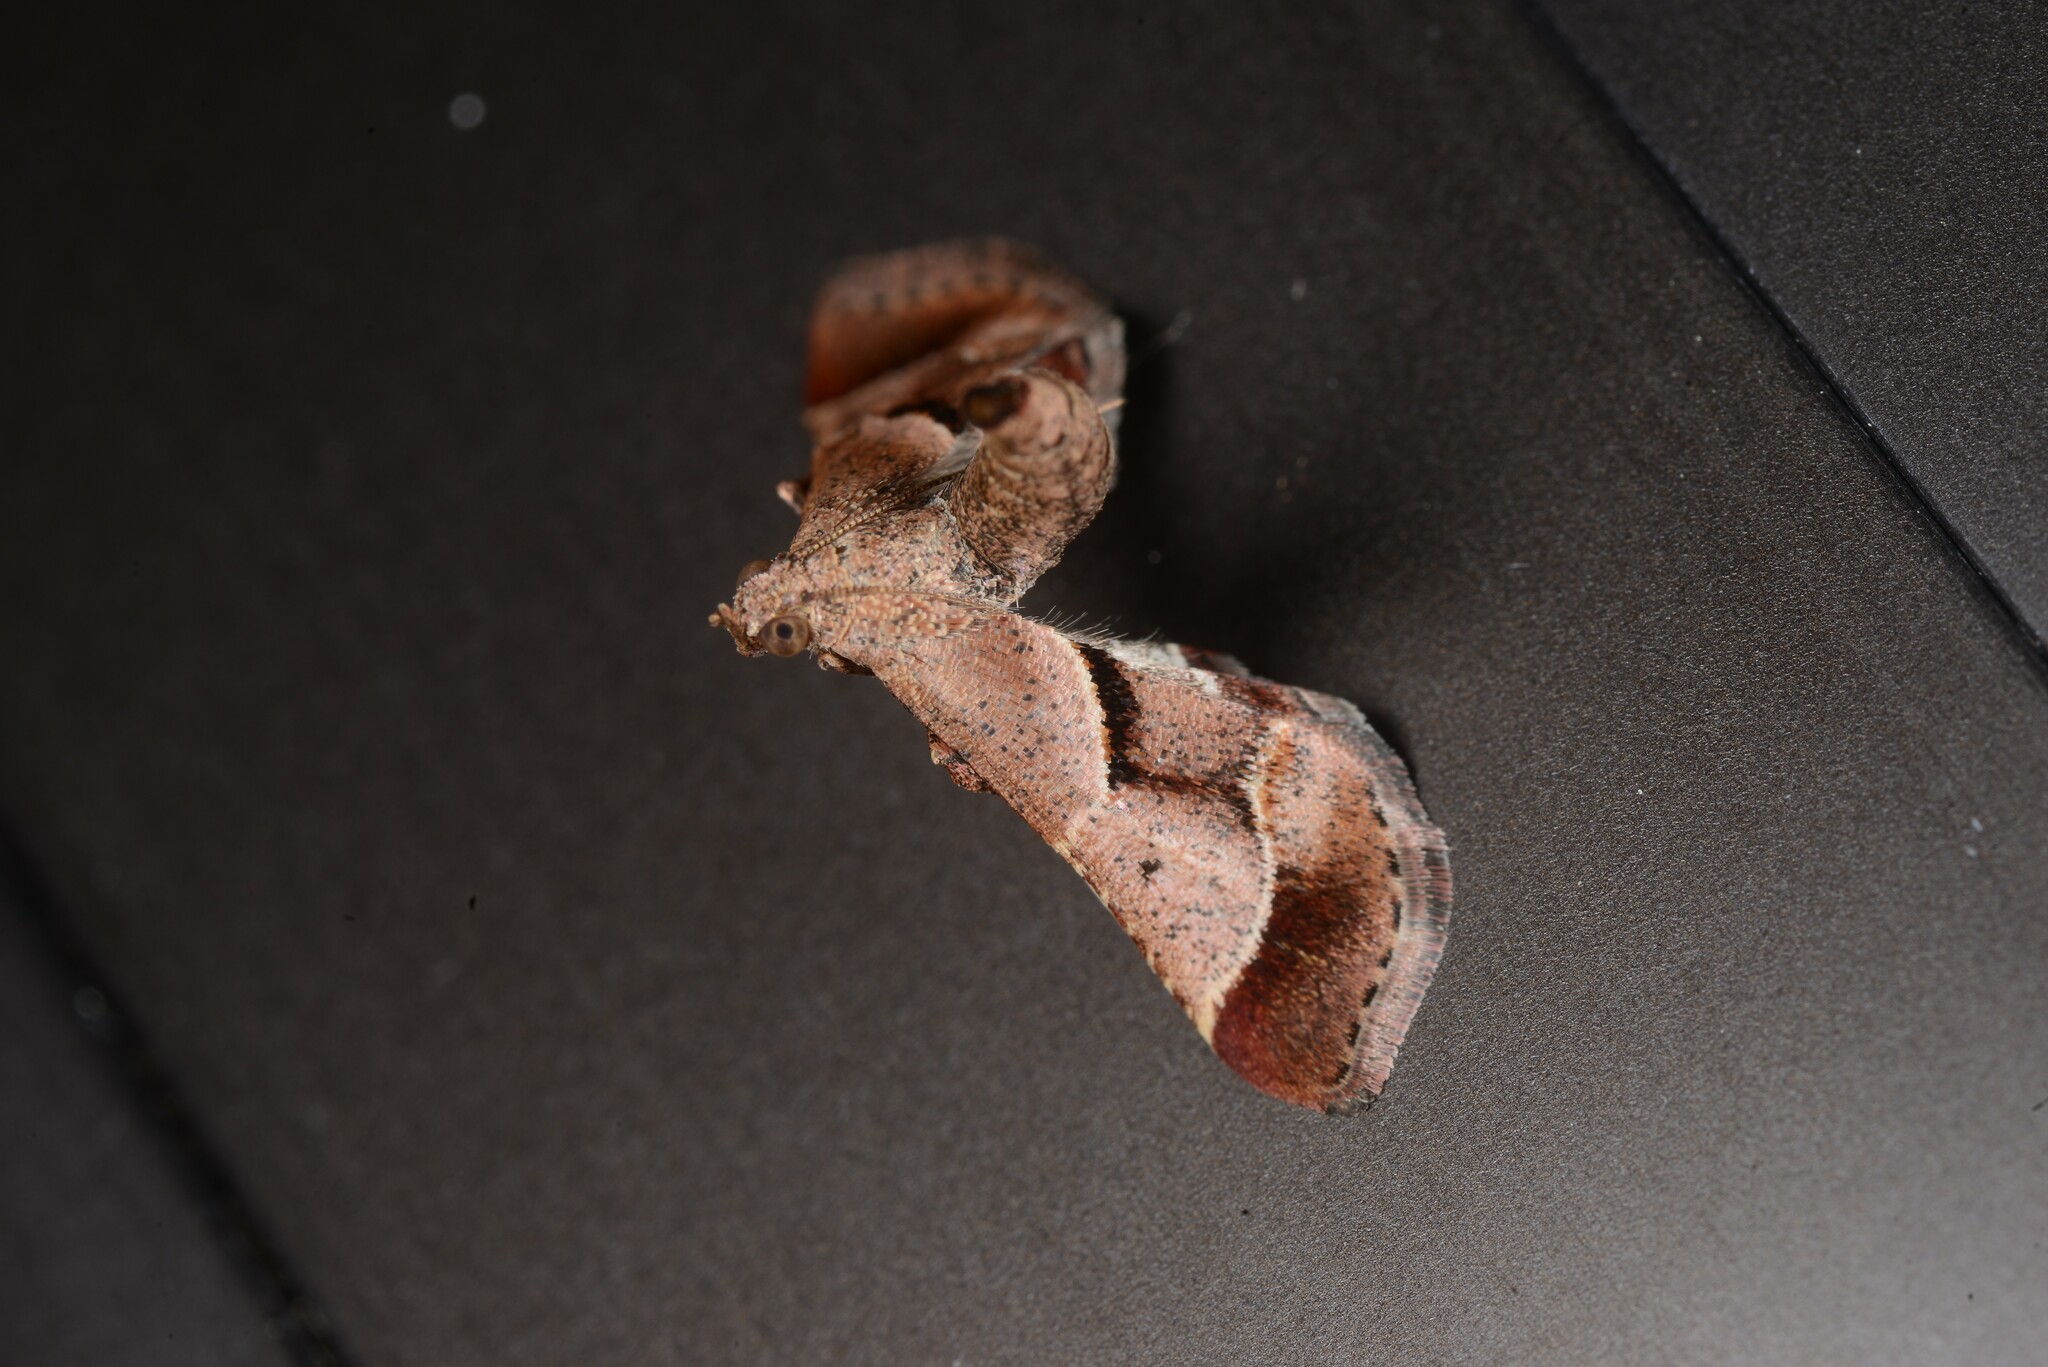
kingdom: Animalia
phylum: Arthropoda
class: Insecta
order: Lepidoptera
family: Pyralidae
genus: Gauna
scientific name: Gauna aegusalis
